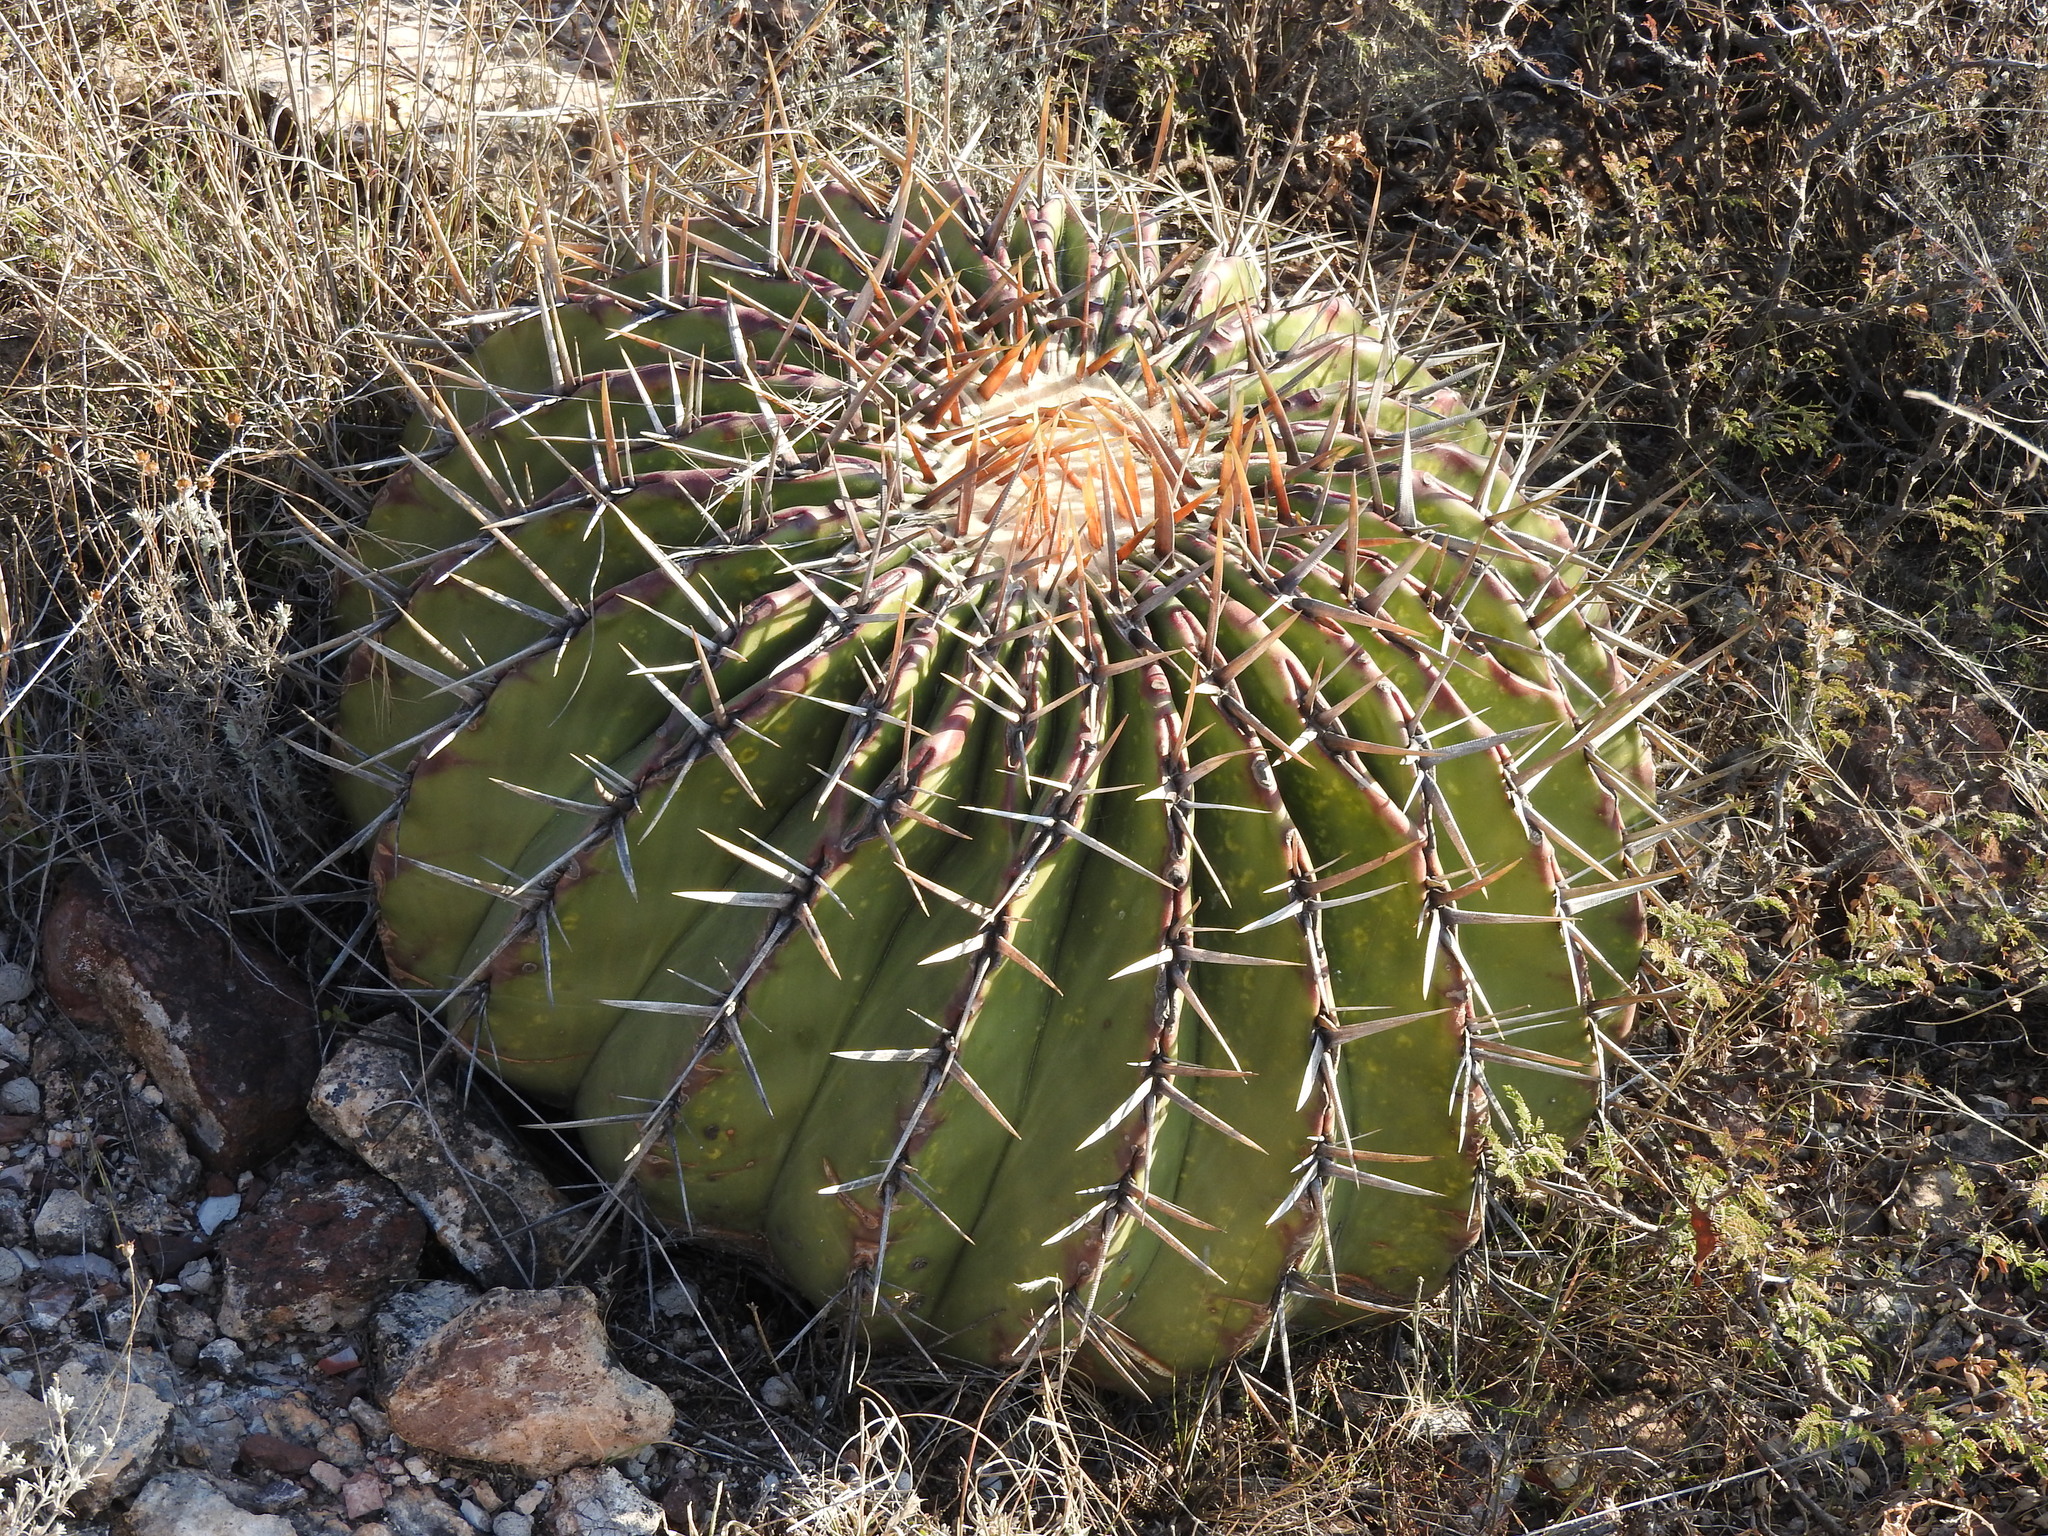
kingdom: Plantae
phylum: Tracheophyta
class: Magnoliopsida
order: Caryophyllales
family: Cactaceae
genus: Echinocactus
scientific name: Echinocactus platyacanthus
